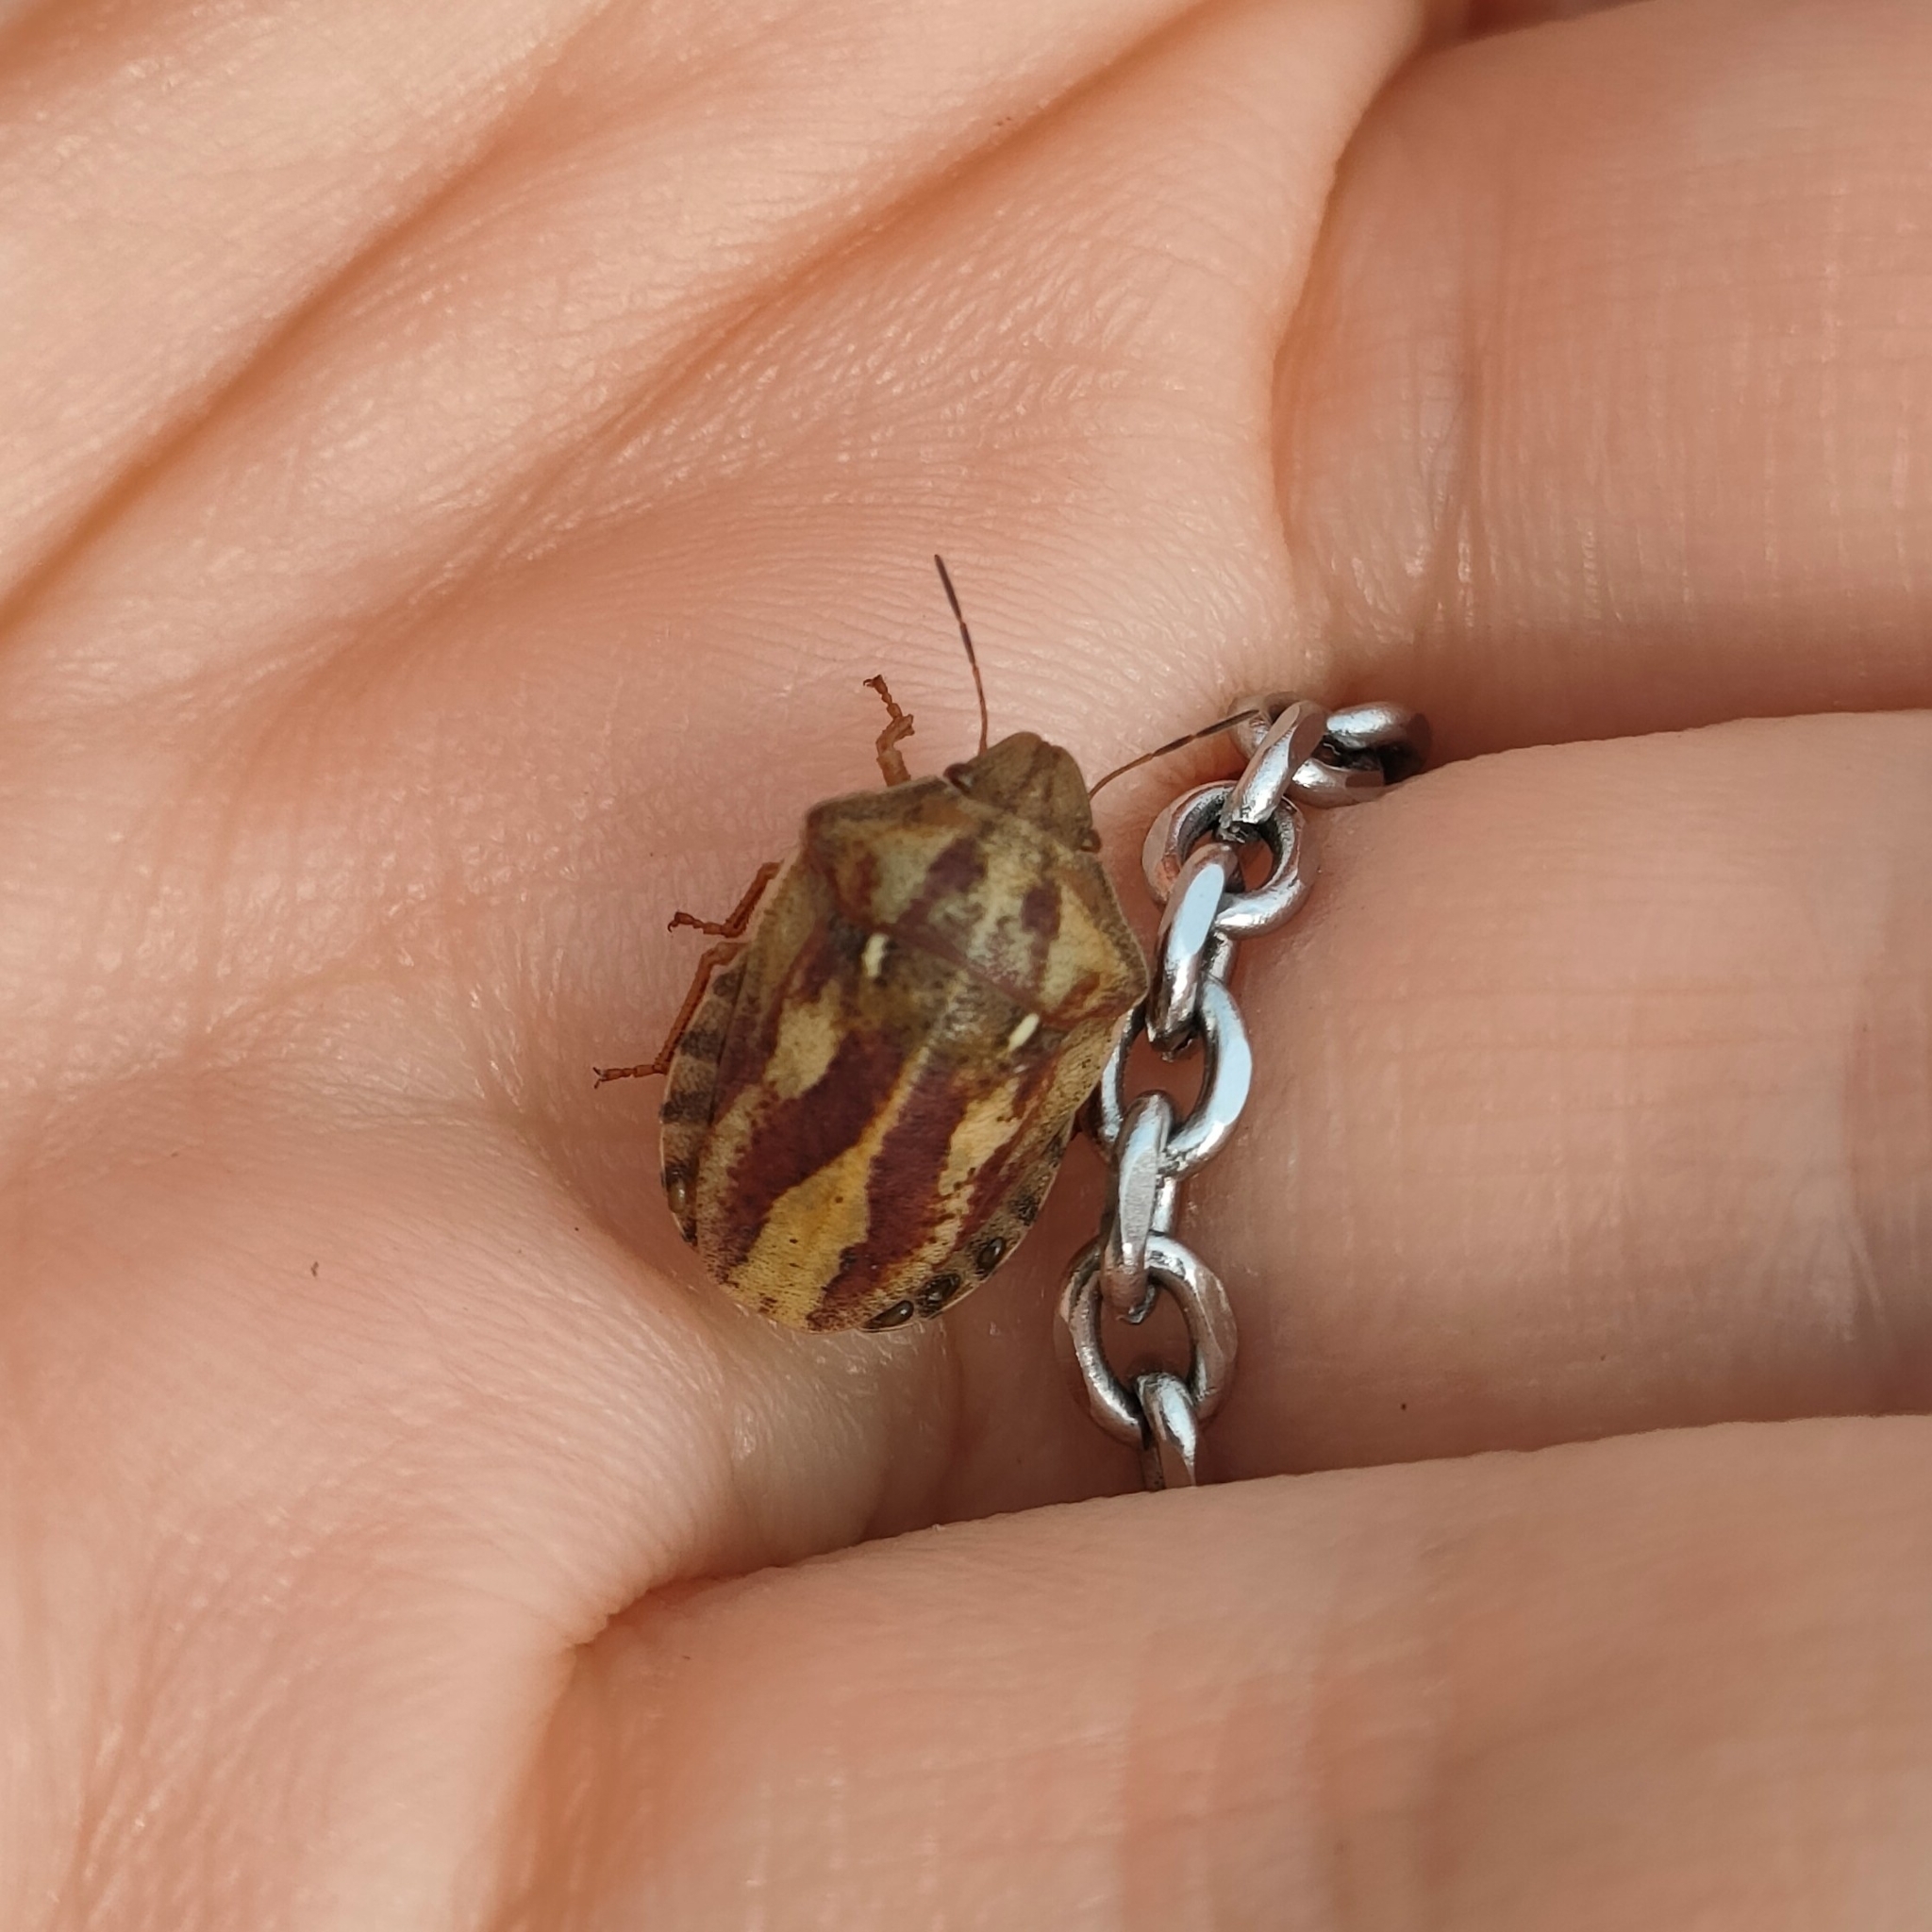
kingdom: Animalia
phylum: Arthropoda
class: Insecta
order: Hemiptera
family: Scutelleridae
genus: Eurygaster
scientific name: Eurygaster testudinaria
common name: Tortoise bug
